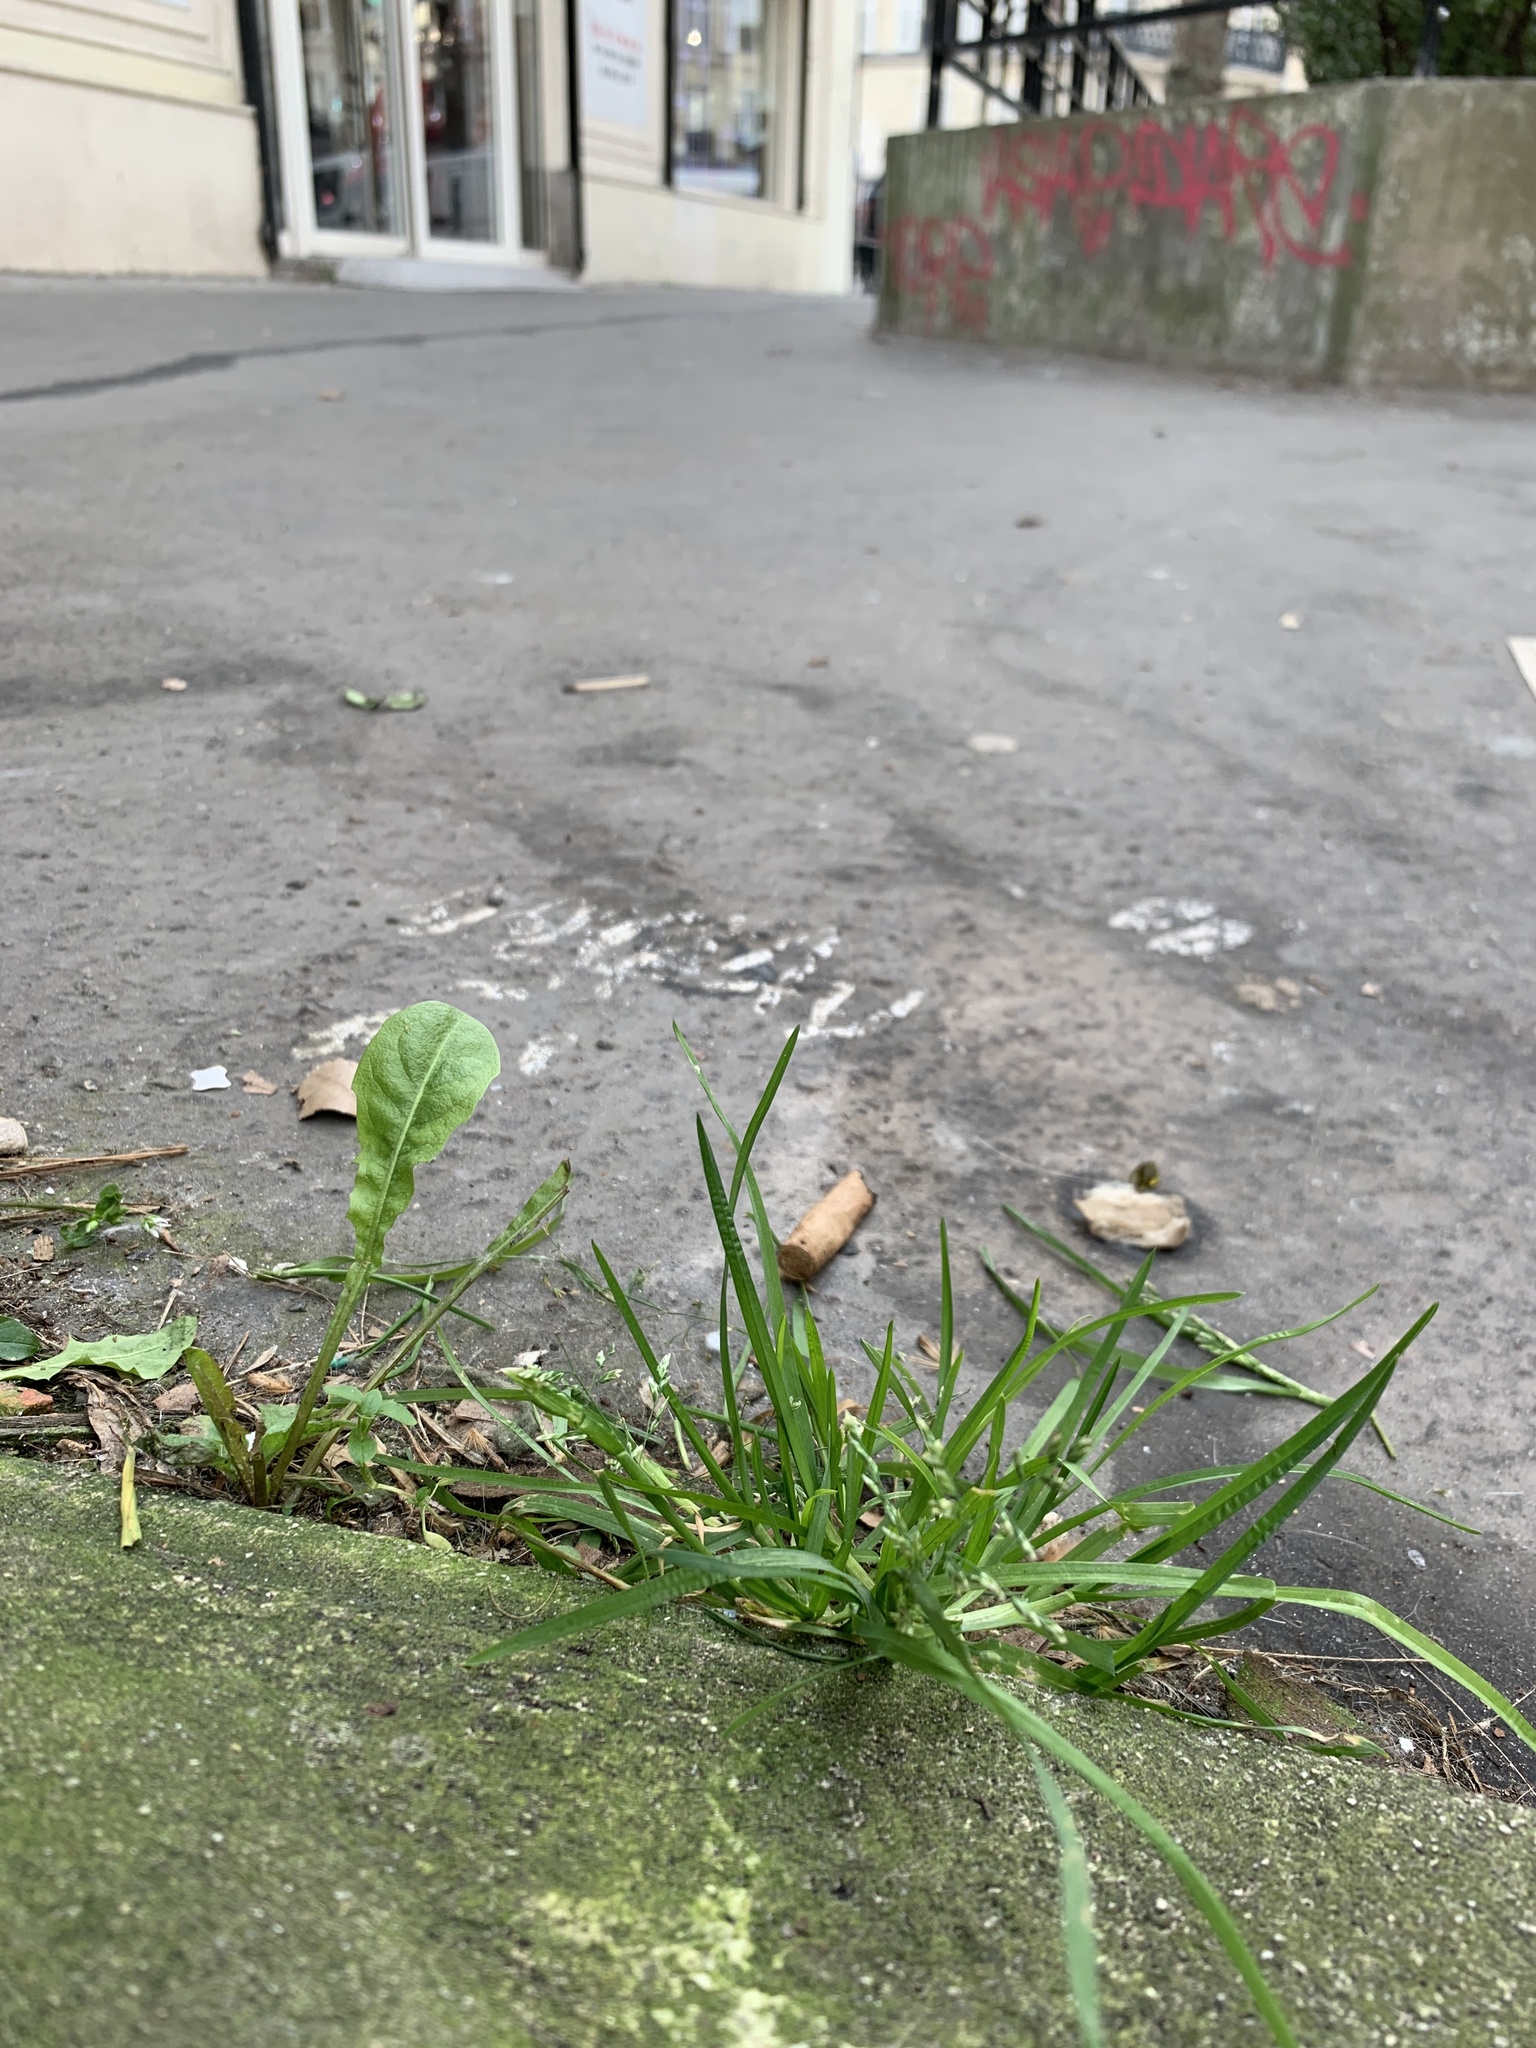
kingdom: Plantae
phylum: Tracheophyta
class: Liliopsida
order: Poales
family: Poaceae
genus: Poa
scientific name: Poa annua
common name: Annual bluegrass
